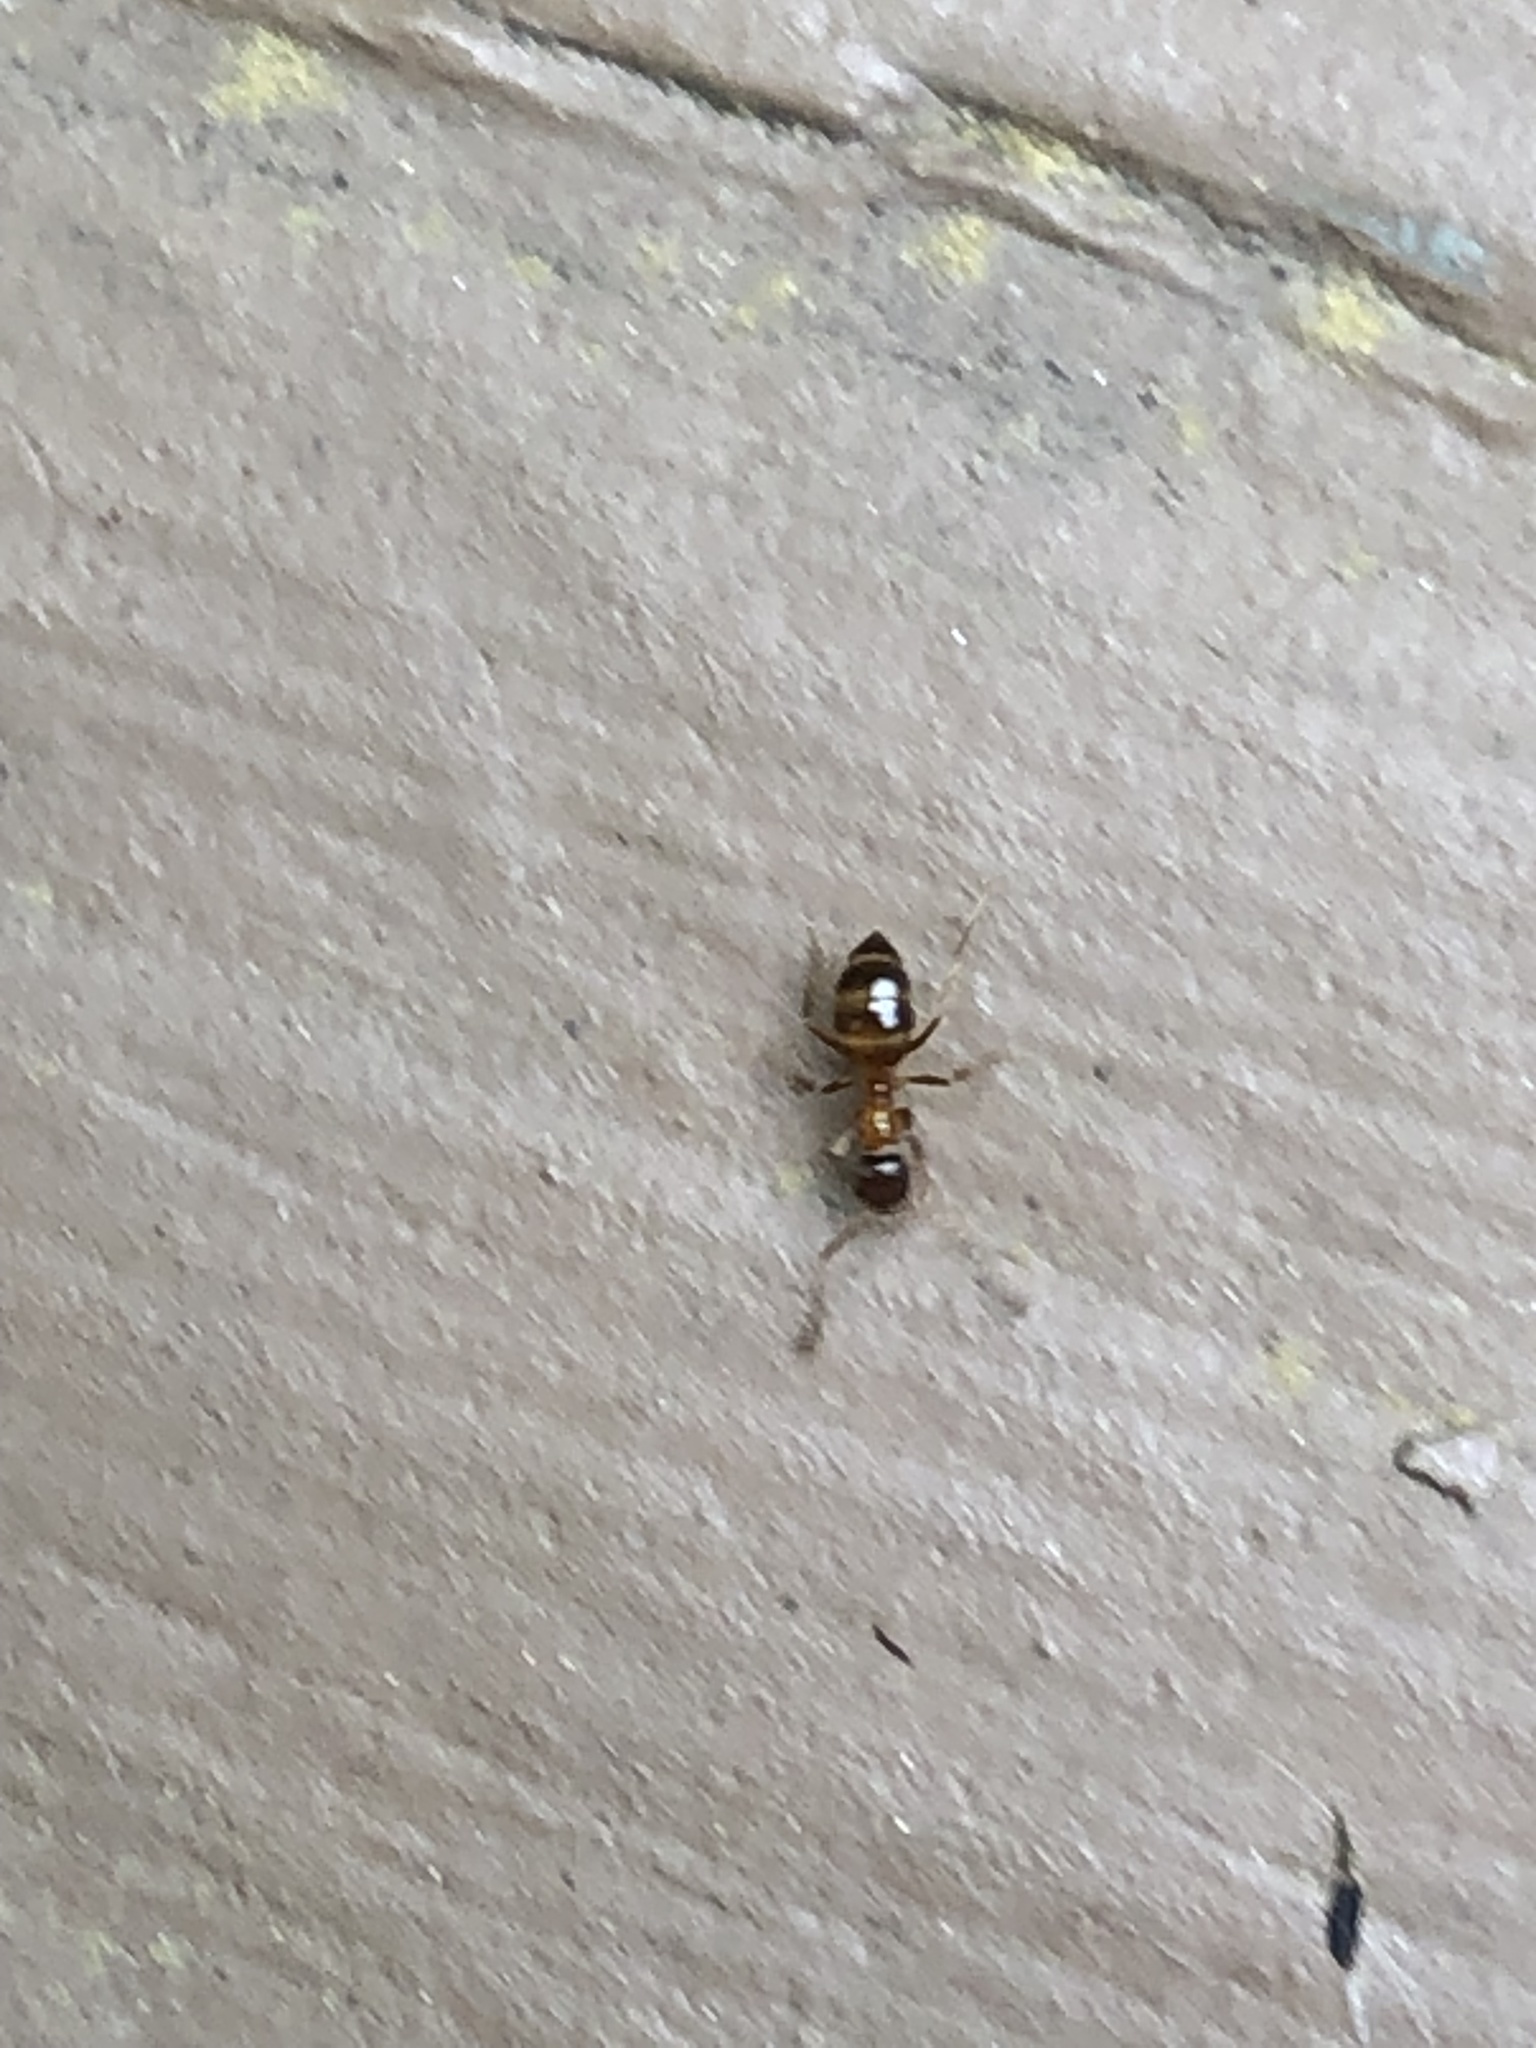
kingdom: Animalia
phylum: Arthropoda
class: Insecta
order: Hymenoptera
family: Formicidae
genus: Paratrechina
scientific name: Paratrechina flavipes
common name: Eastern asian formicine ant
